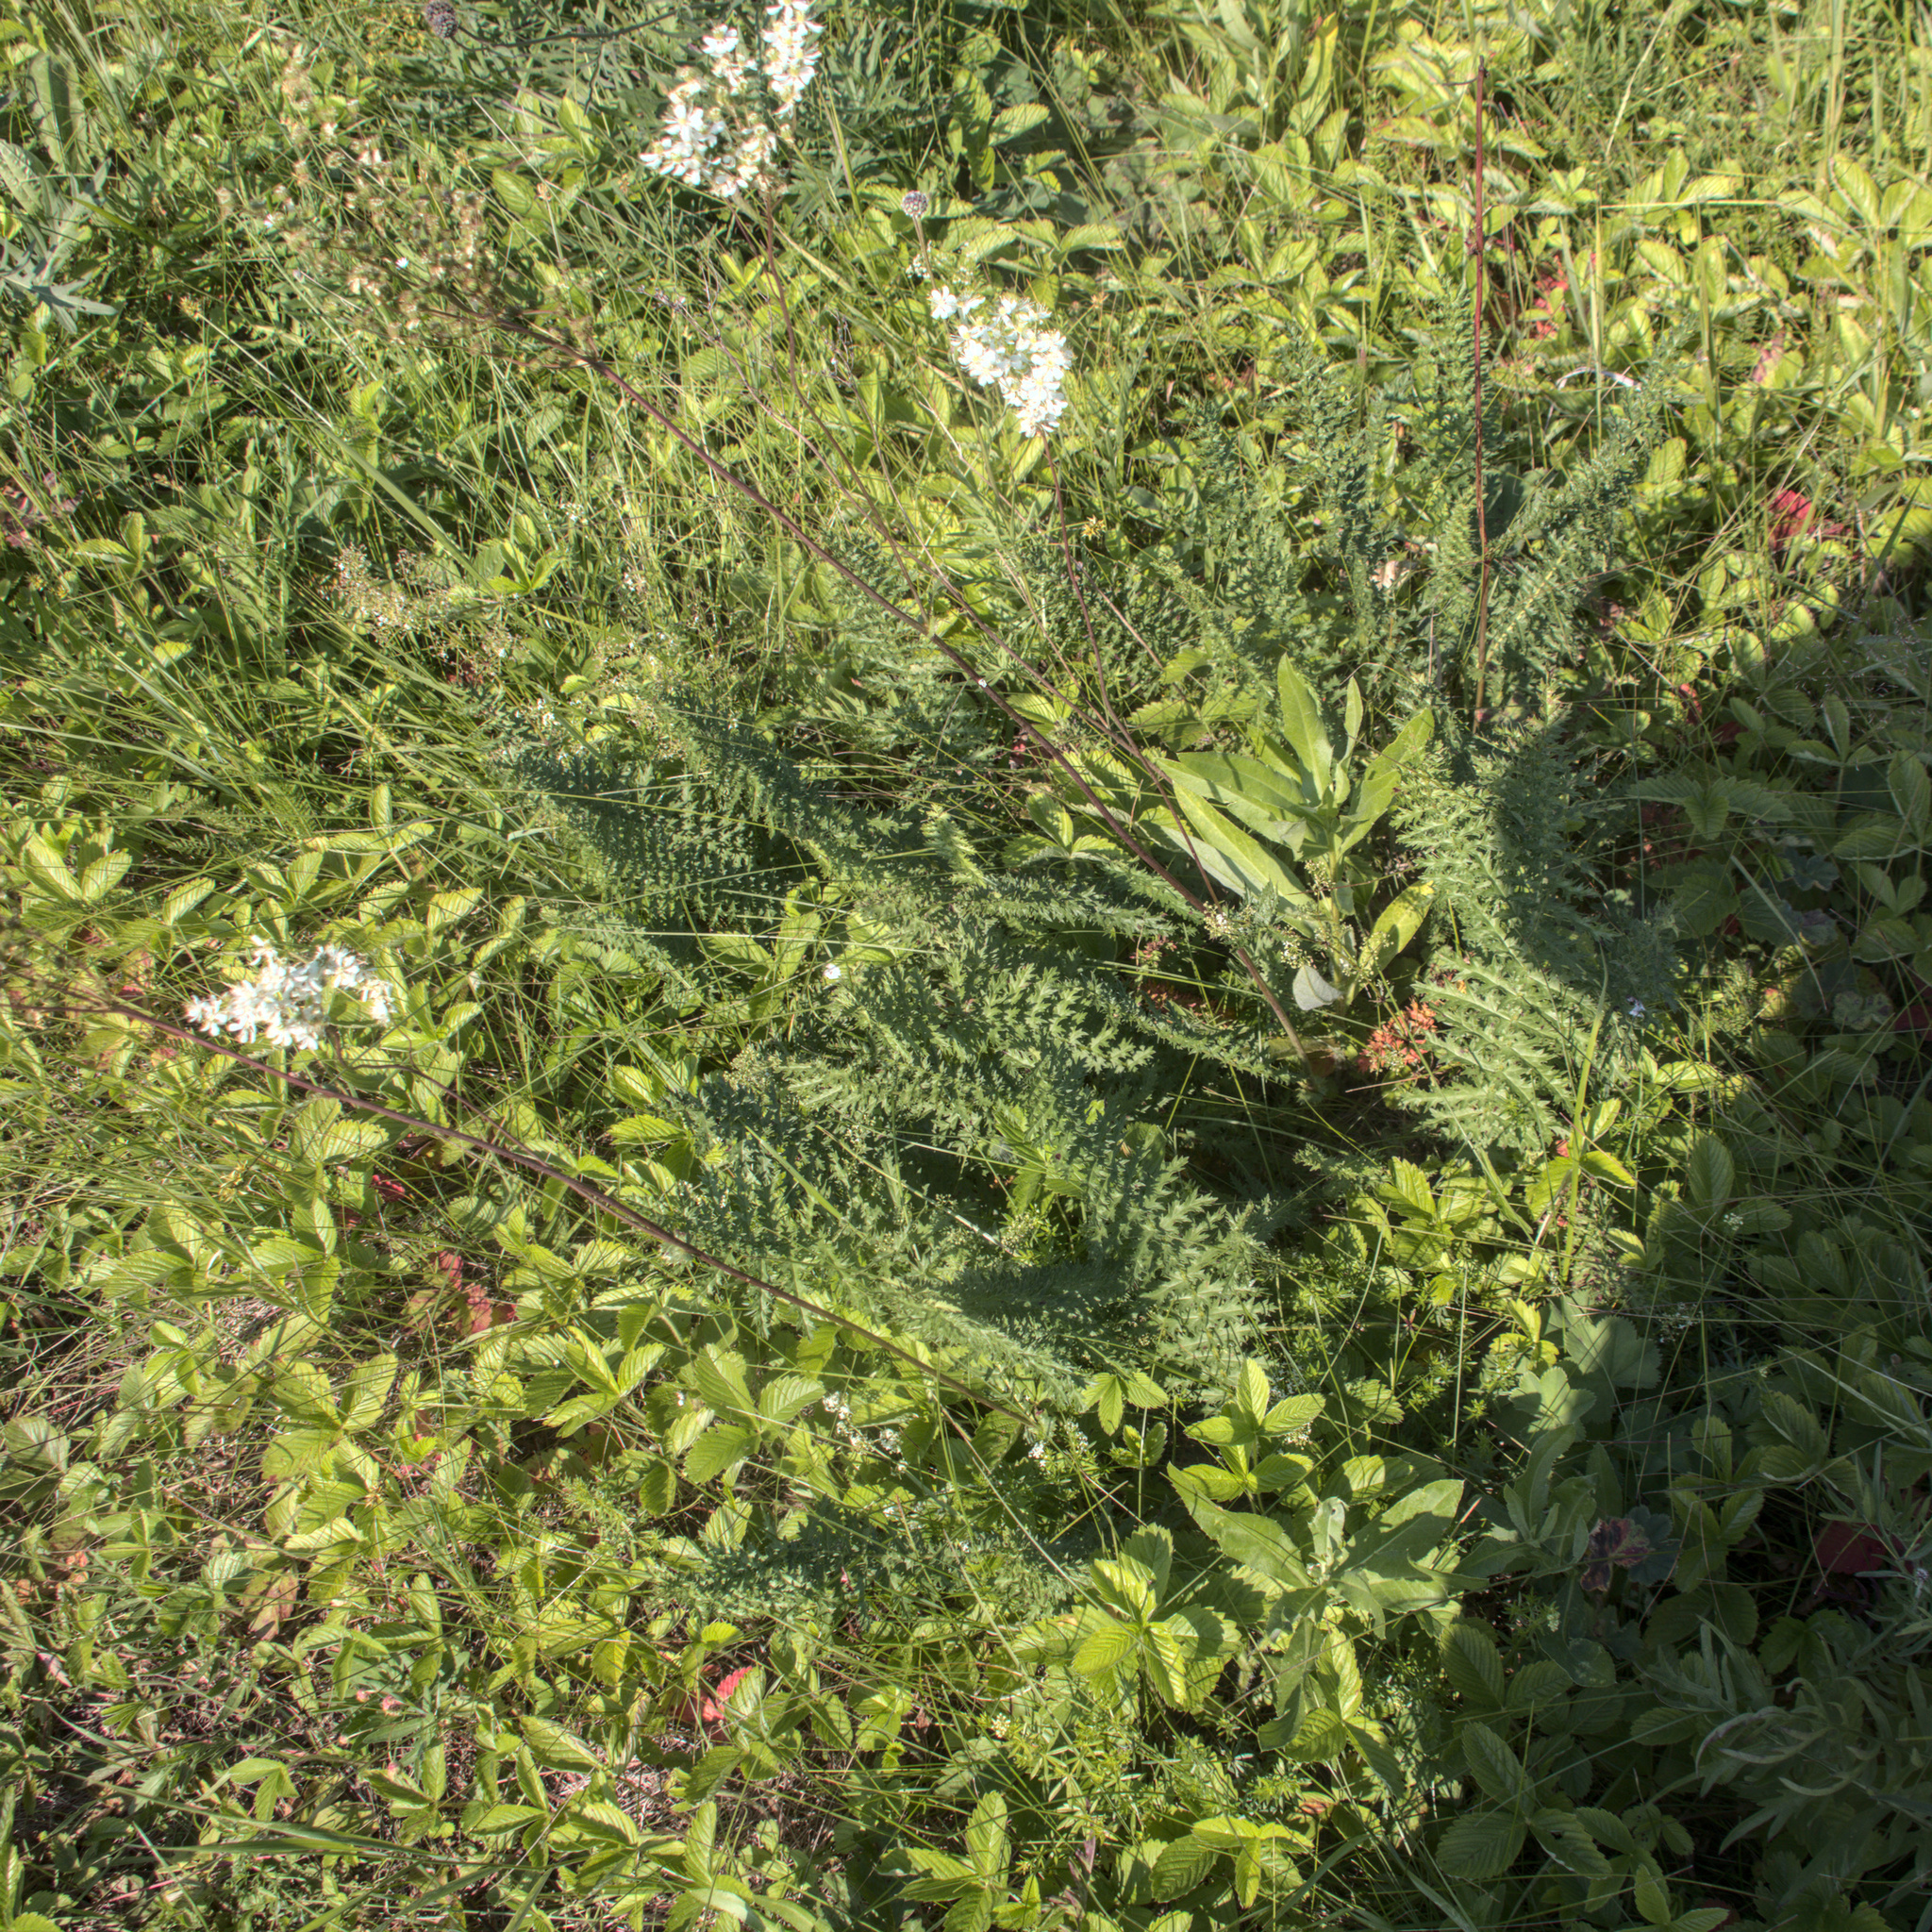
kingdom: Plantae
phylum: Tracheophyta
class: Magnoliopsida
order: Rosales
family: Rosaceae
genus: Filipendula
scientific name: Filipendula vulgaris
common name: Dropwort
